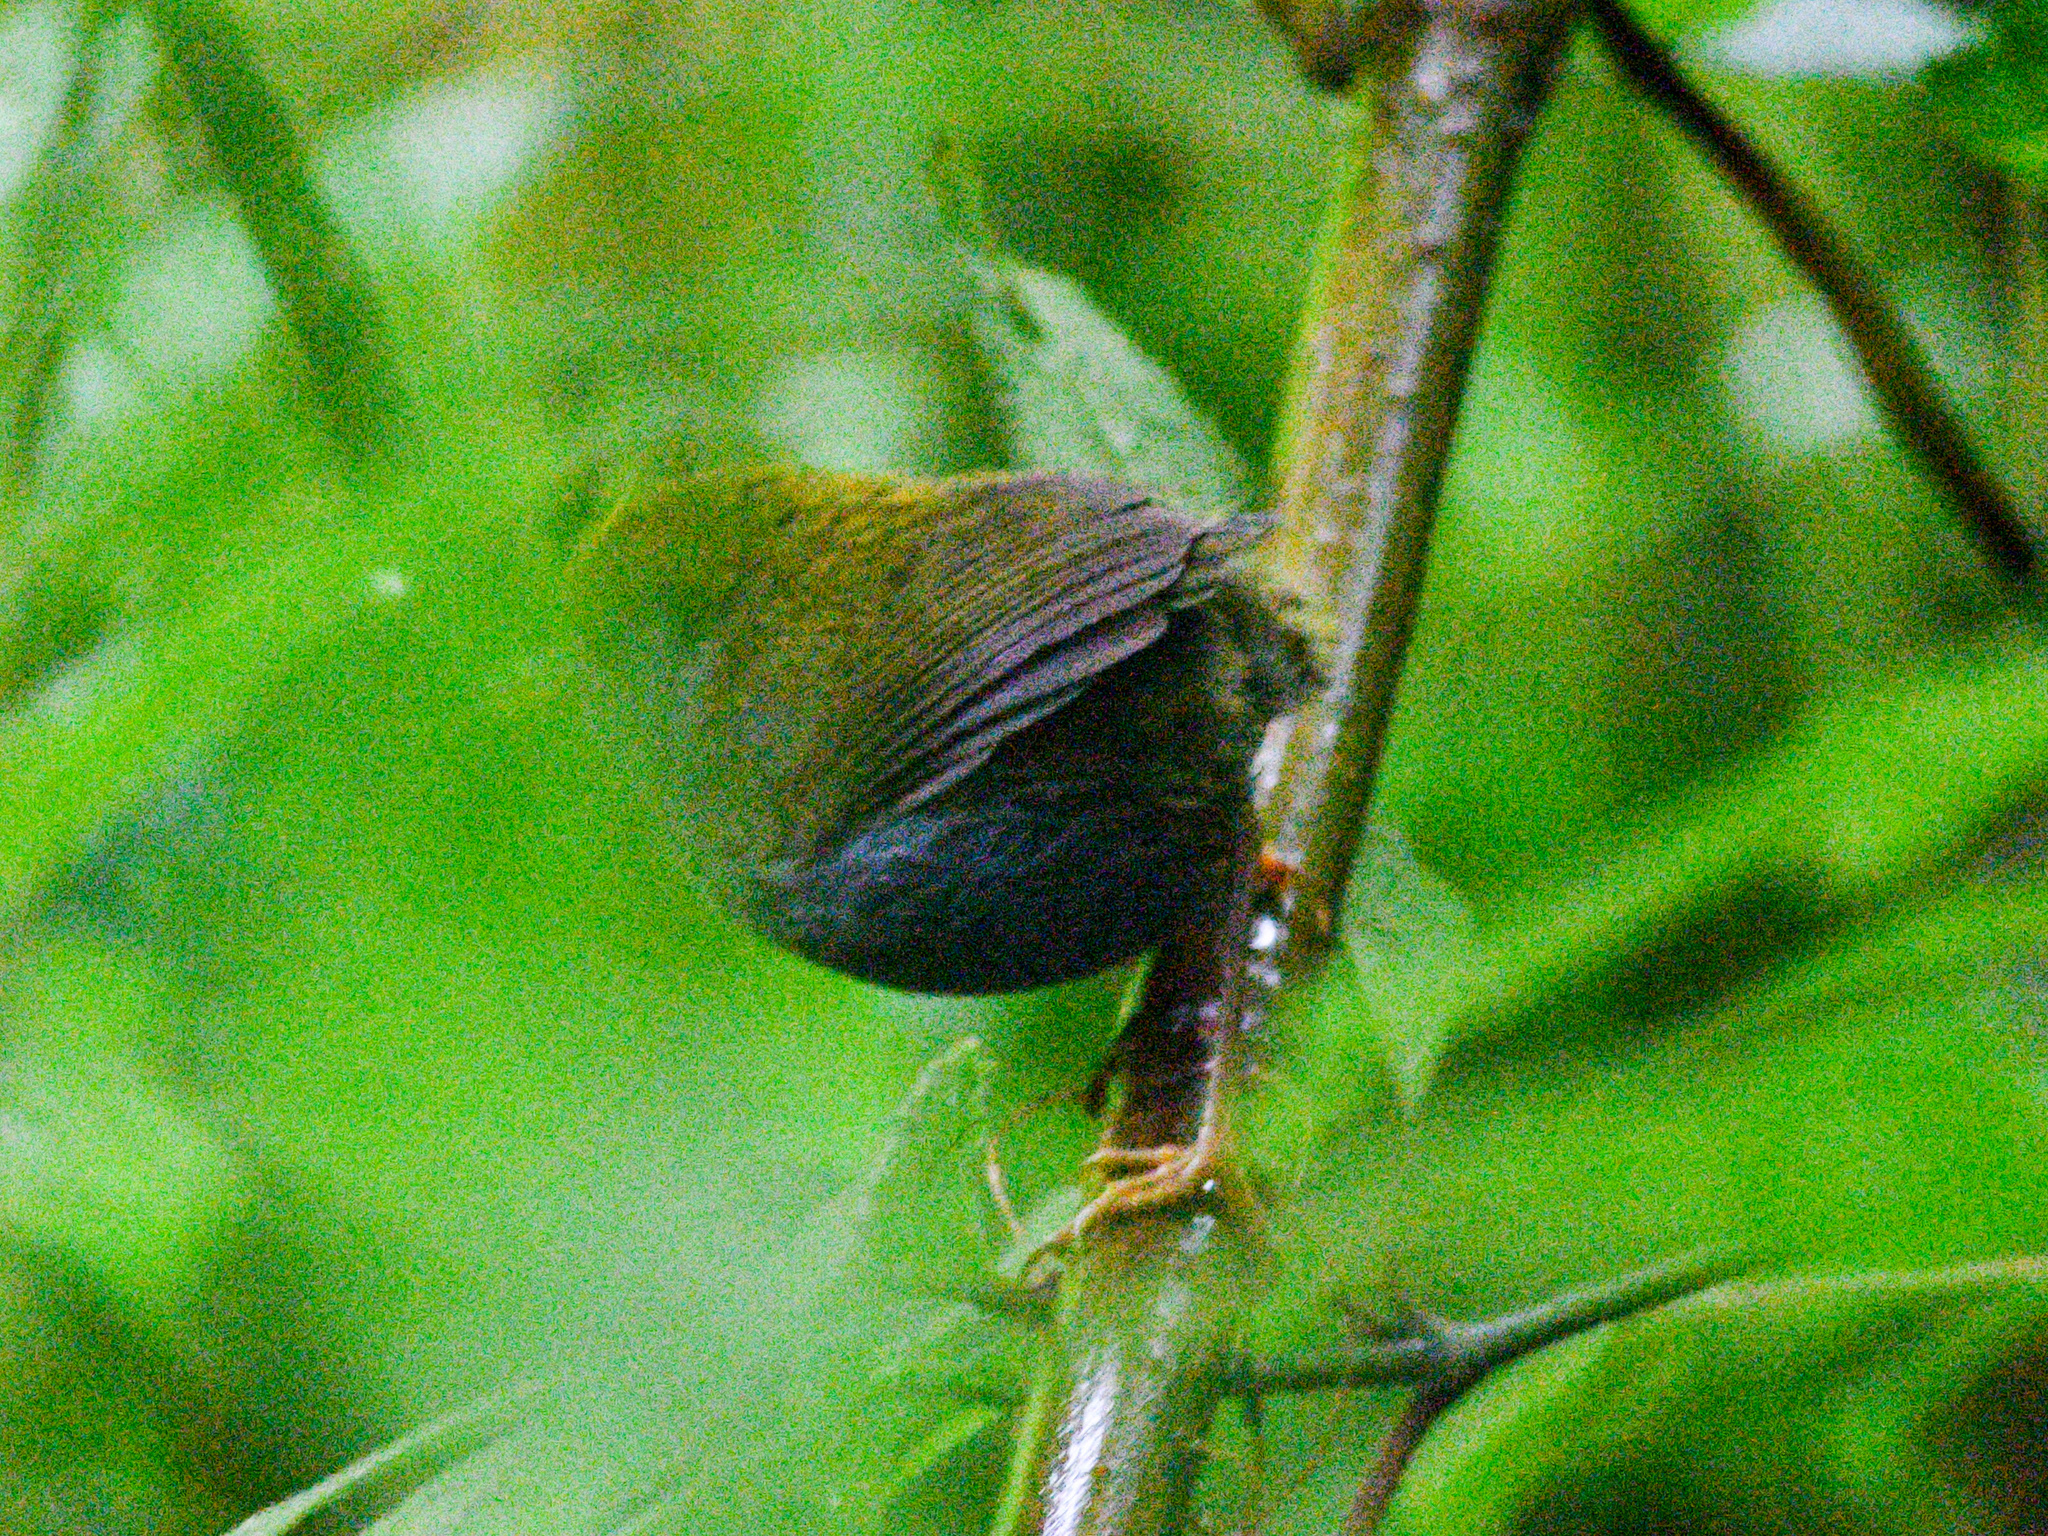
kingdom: Animalia
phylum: Chordata
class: Aves
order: Passeriformes
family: Cettiidae
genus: Tesia
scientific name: Tesia olivea
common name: Slaty-bellied tesia
